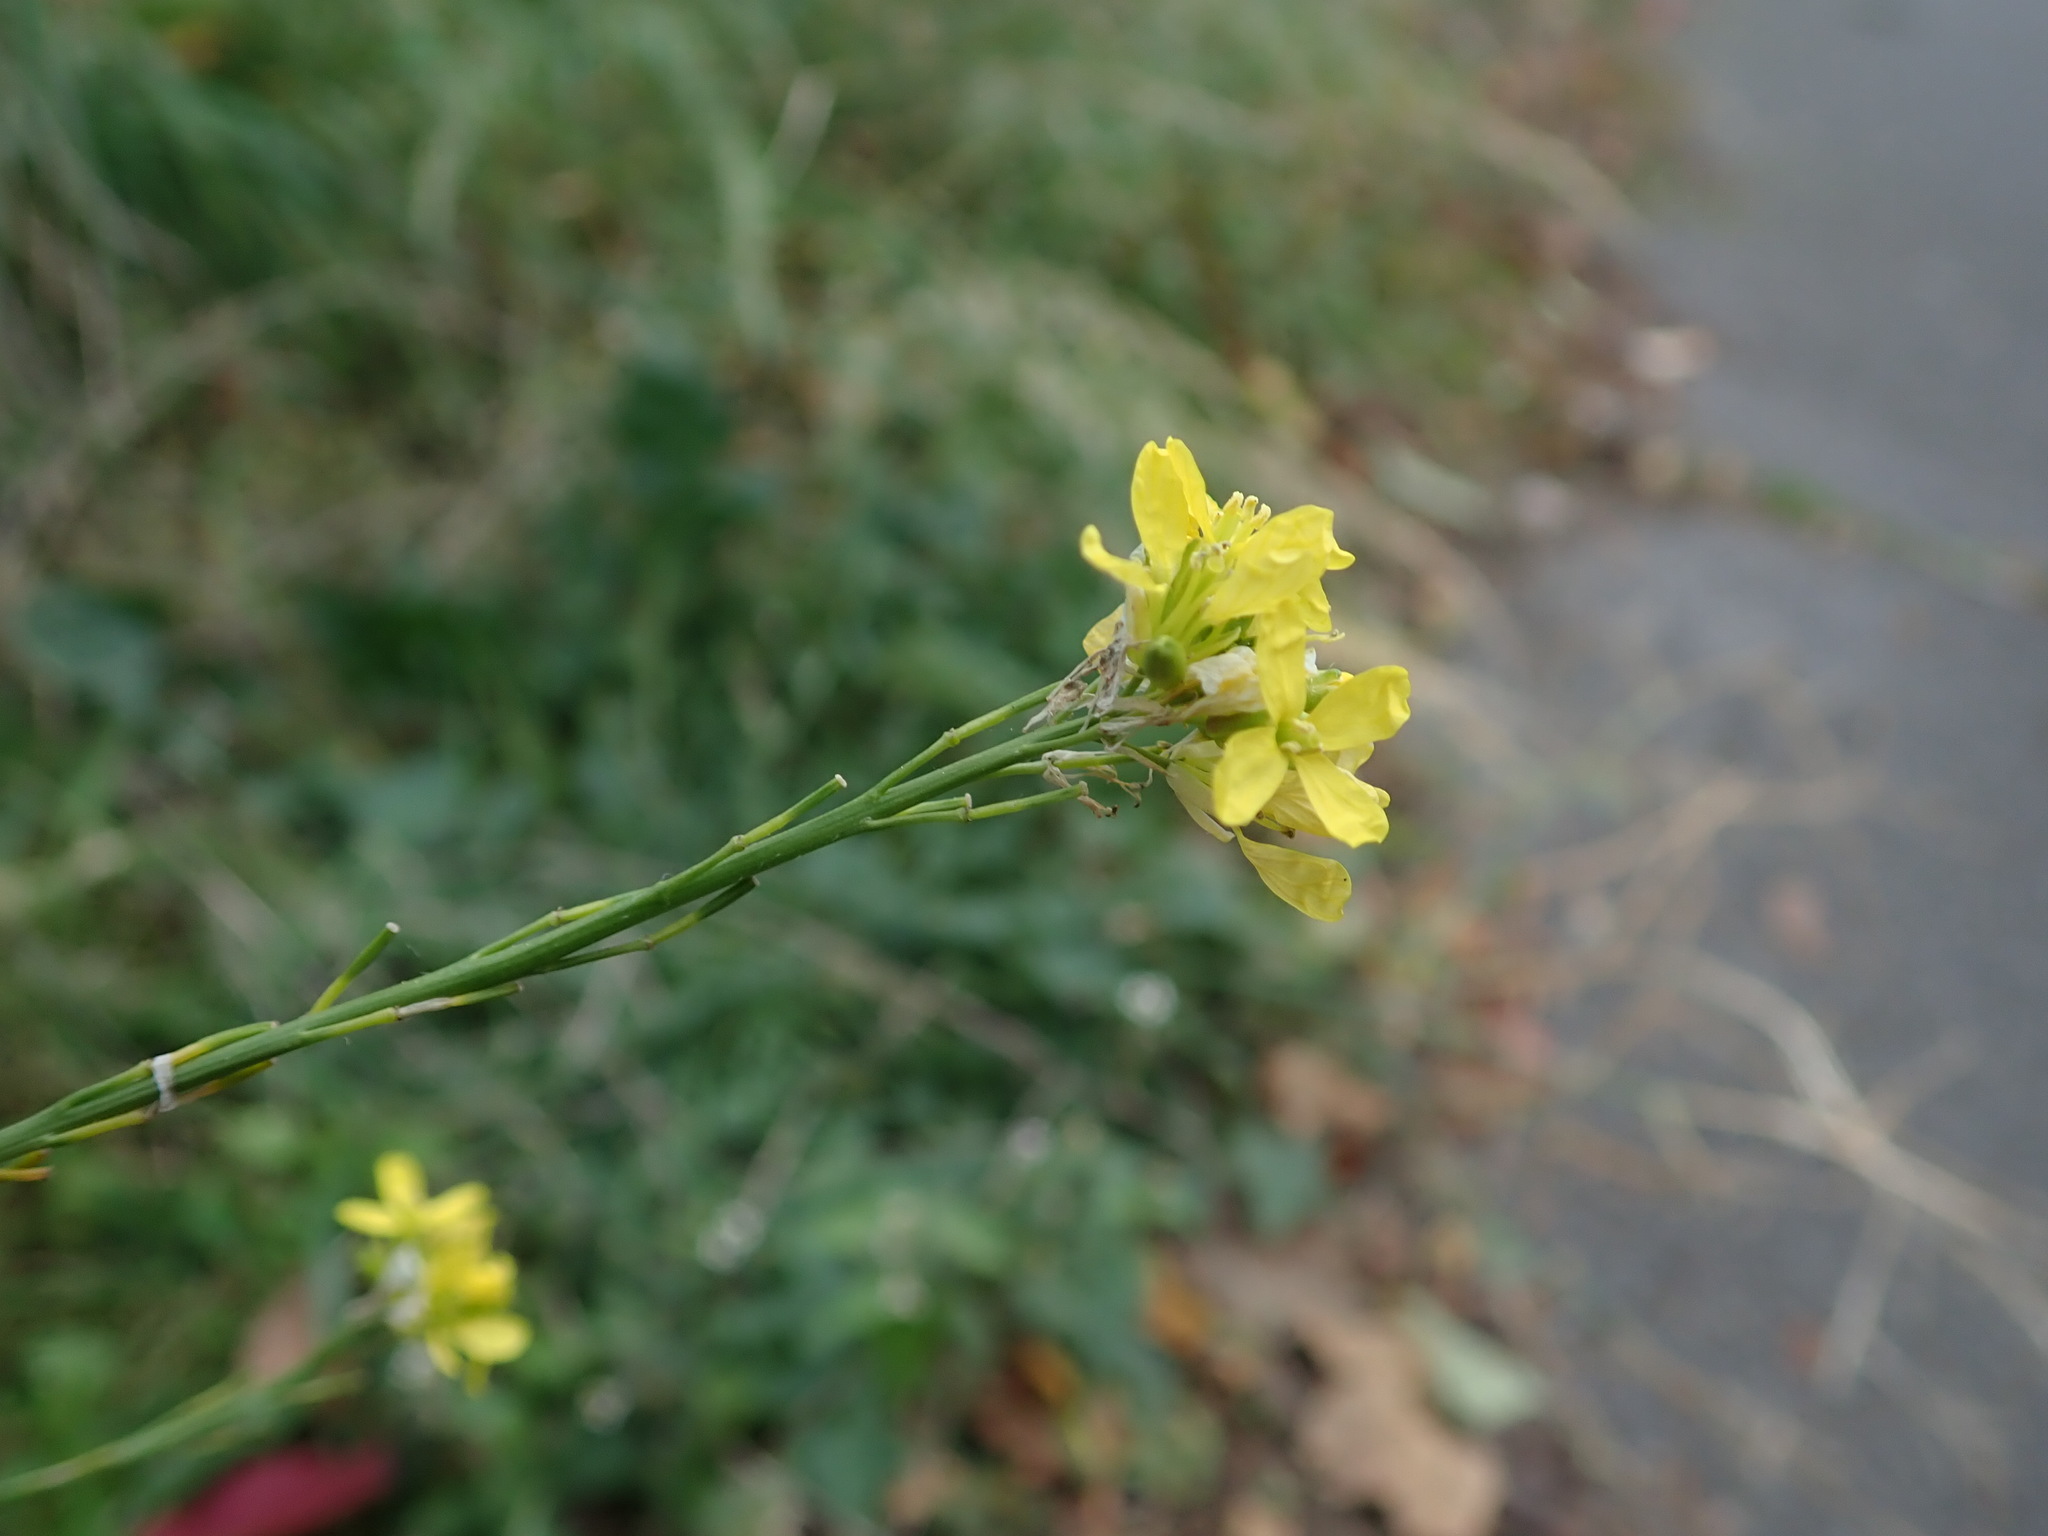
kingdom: Plantae
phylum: Tracheophyta
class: Magnoliopsida
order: Brassicales
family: Brassicaceae
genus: Hirschfeldia
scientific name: Hirschfeldia incana
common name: Hoary mustard
